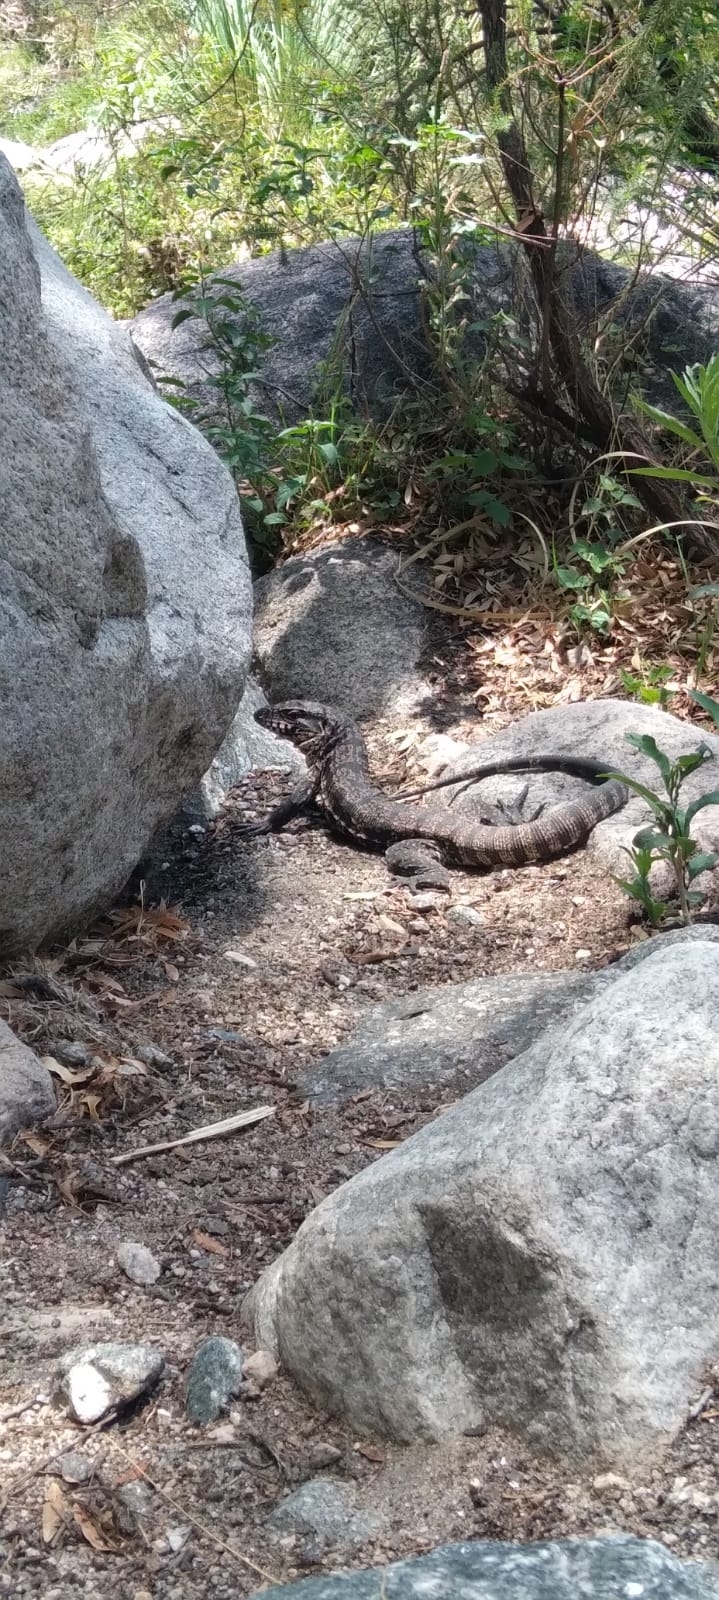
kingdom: Animalia
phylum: Chordata
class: Squamata
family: Teiidae
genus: Salvator
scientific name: Salvator merianae
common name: Argentine black and white tegu
